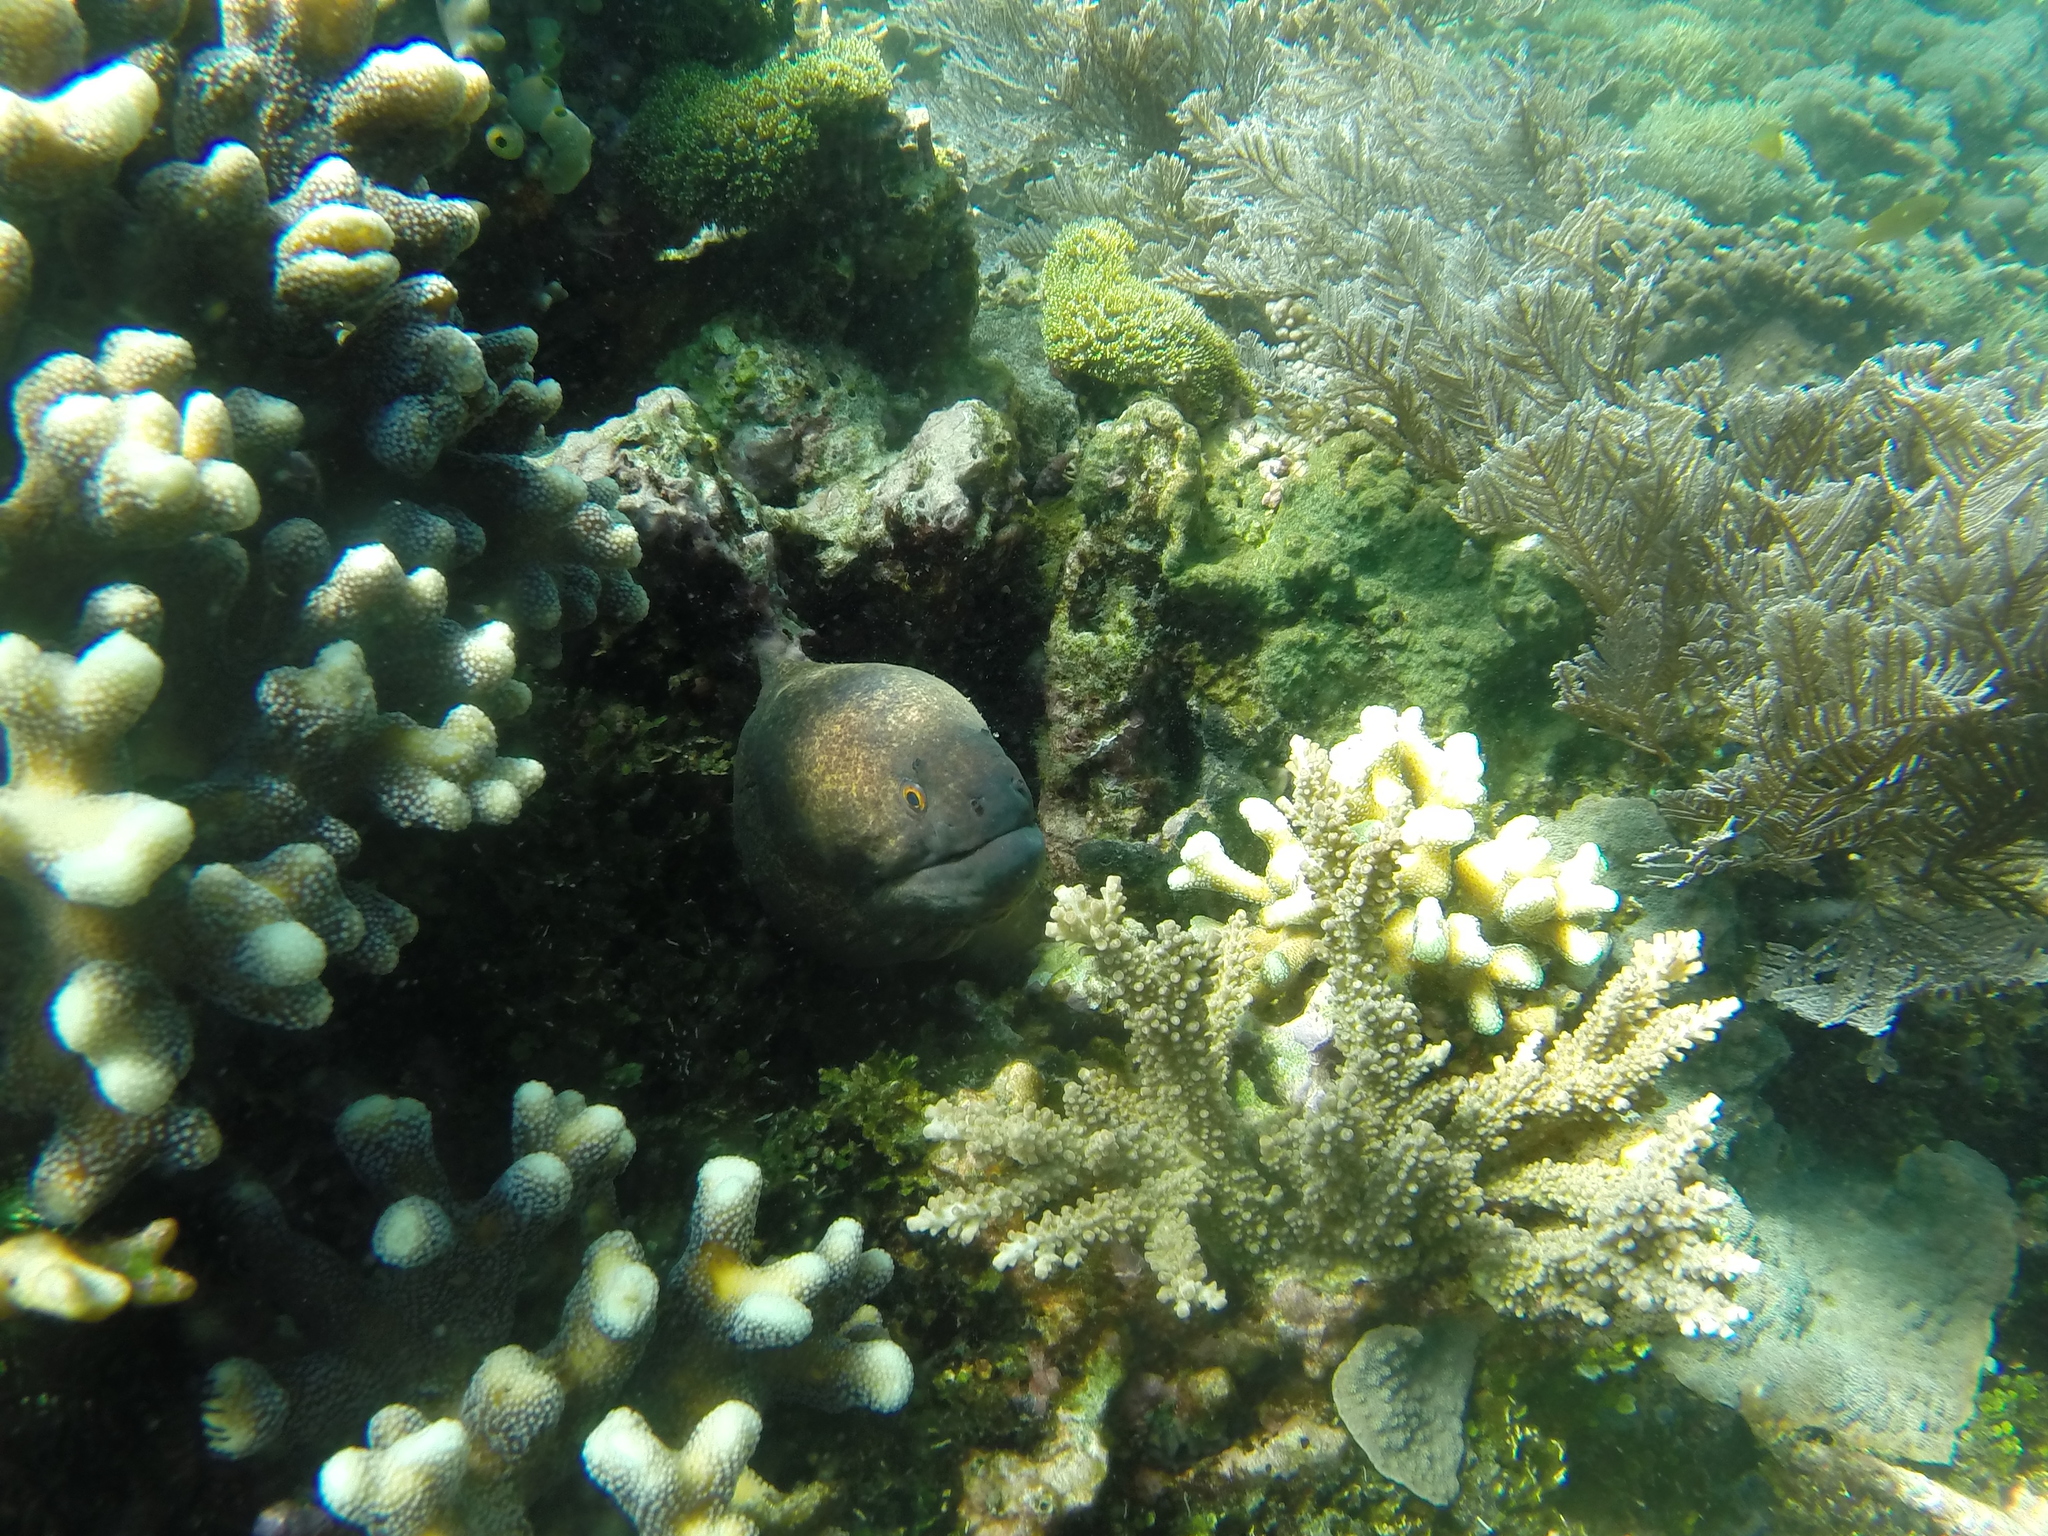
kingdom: Animalia
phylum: Chordata
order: Anguilliformes
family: Muraenidae
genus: Gymnothorax
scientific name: Gymnothorax flavimarginatus
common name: Yellow-edged moray
